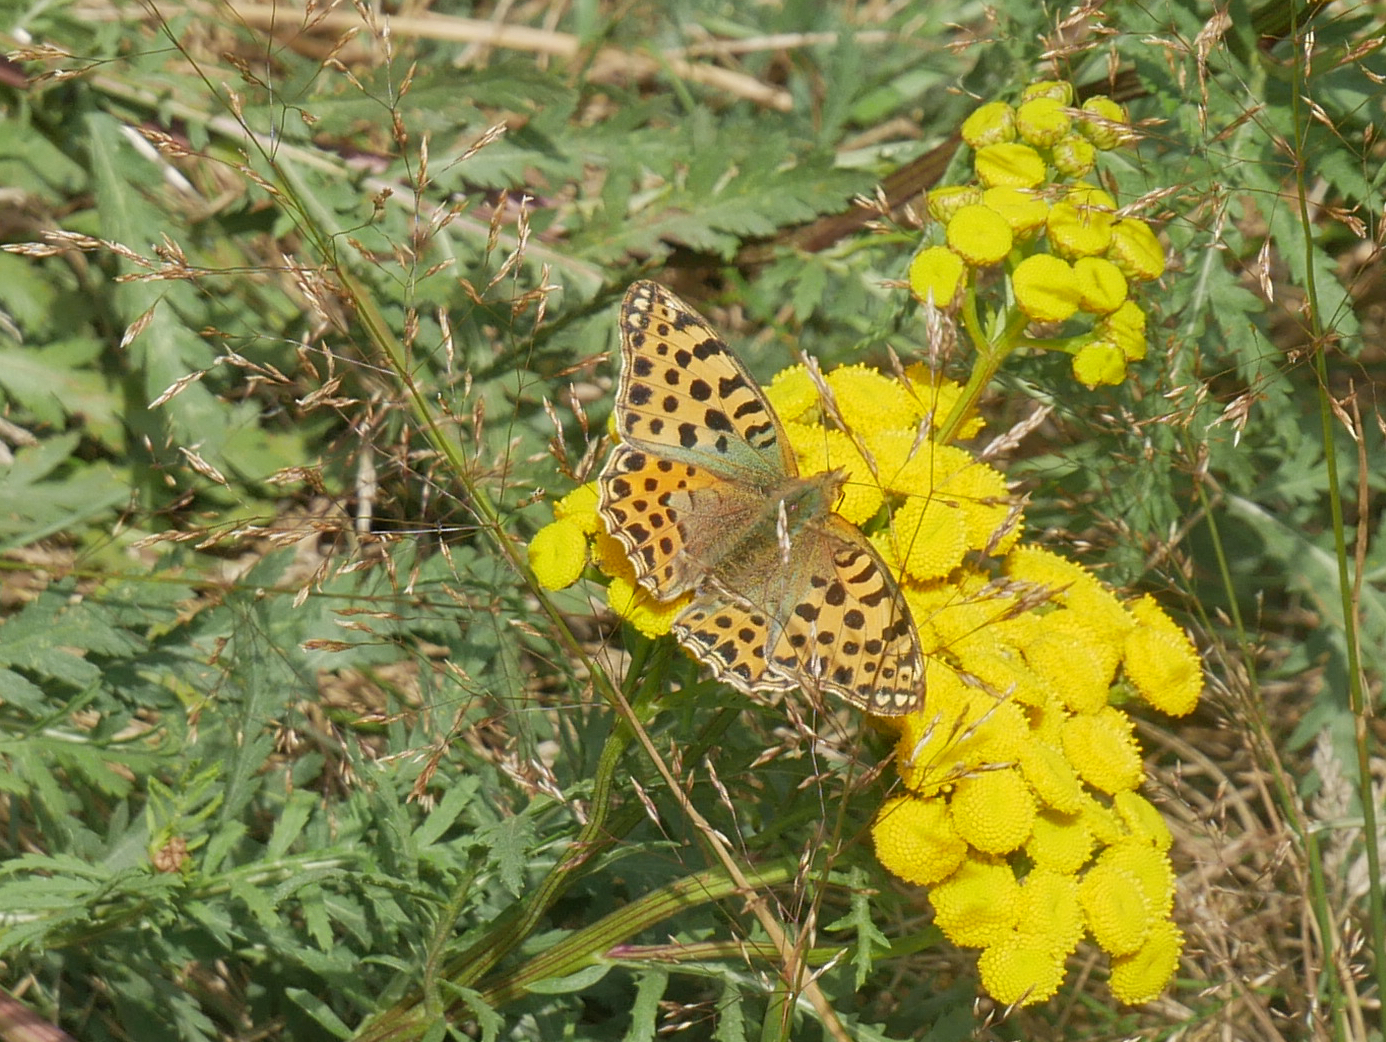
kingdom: Animalia
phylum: Arthropoda
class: Insecta
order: Lepidoptera
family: Nymphalidae
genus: Issoria
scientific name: Issoria lathonia
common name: Queen of spain fritillary
